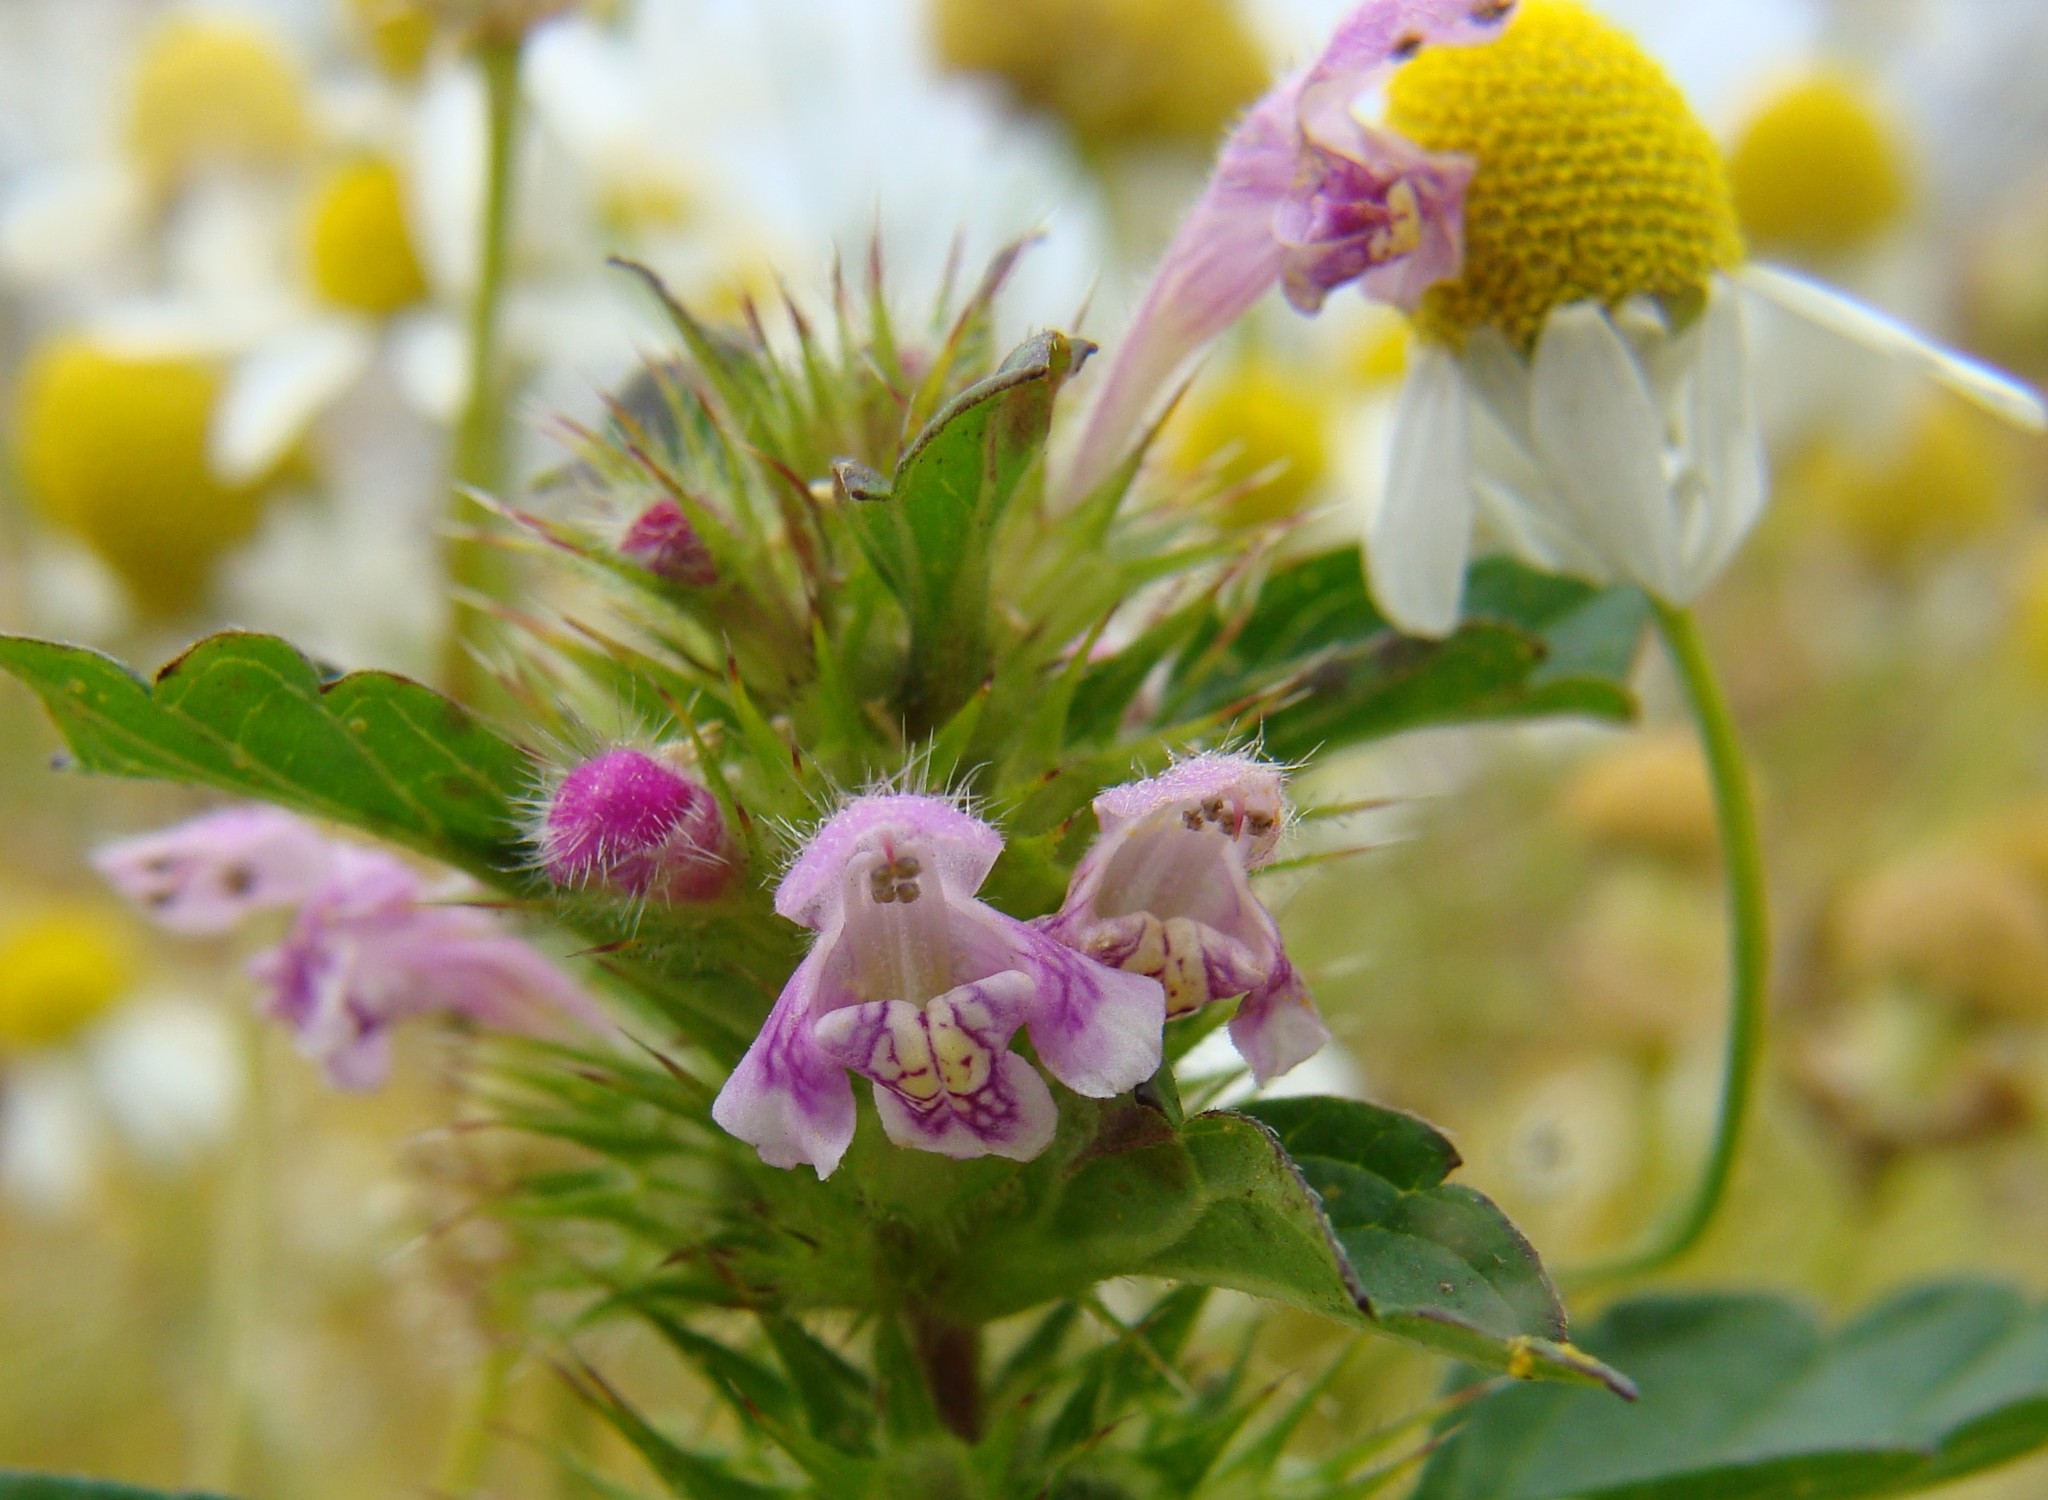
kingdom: Plantae
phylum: Tracheophyta
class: Magnoliopsida
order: Lamiales
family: Lamiaceae
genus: Galeopsis
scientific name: Galeopsis tetrahit
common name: Common hemp-nettle
